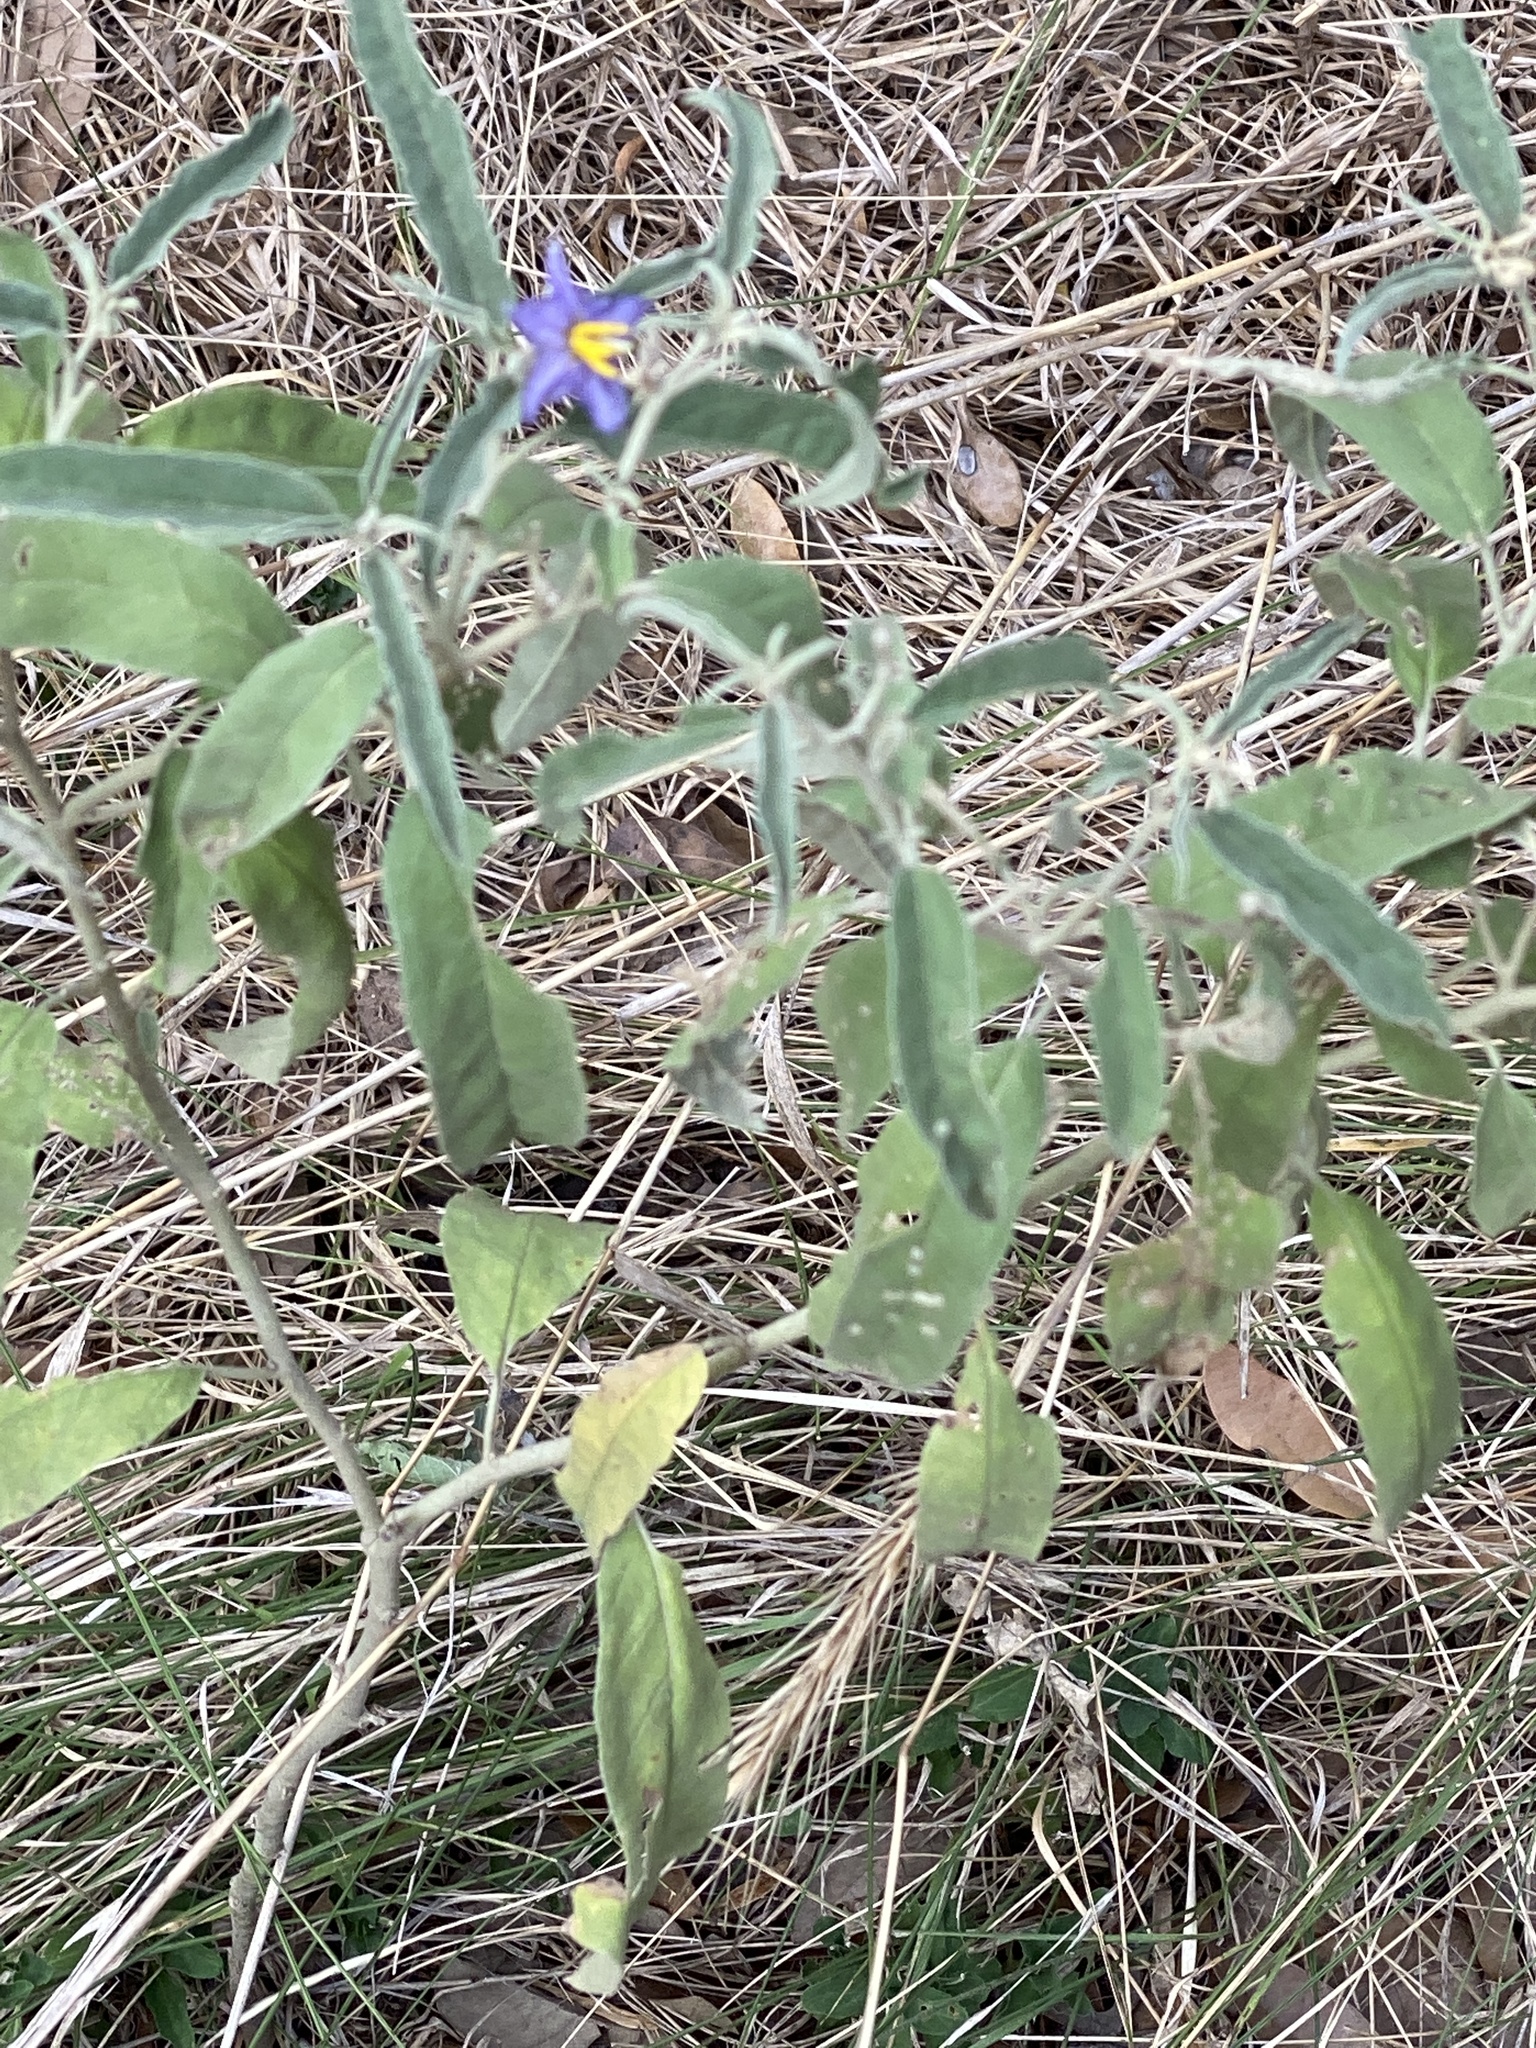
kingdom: Plantae
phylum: Tracheophyta
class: Magnoliopsida
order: Solanales
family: Solanaceae
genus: Solanum
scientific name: Solanum elaeagnifolium
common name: Silverleaf nightshade
